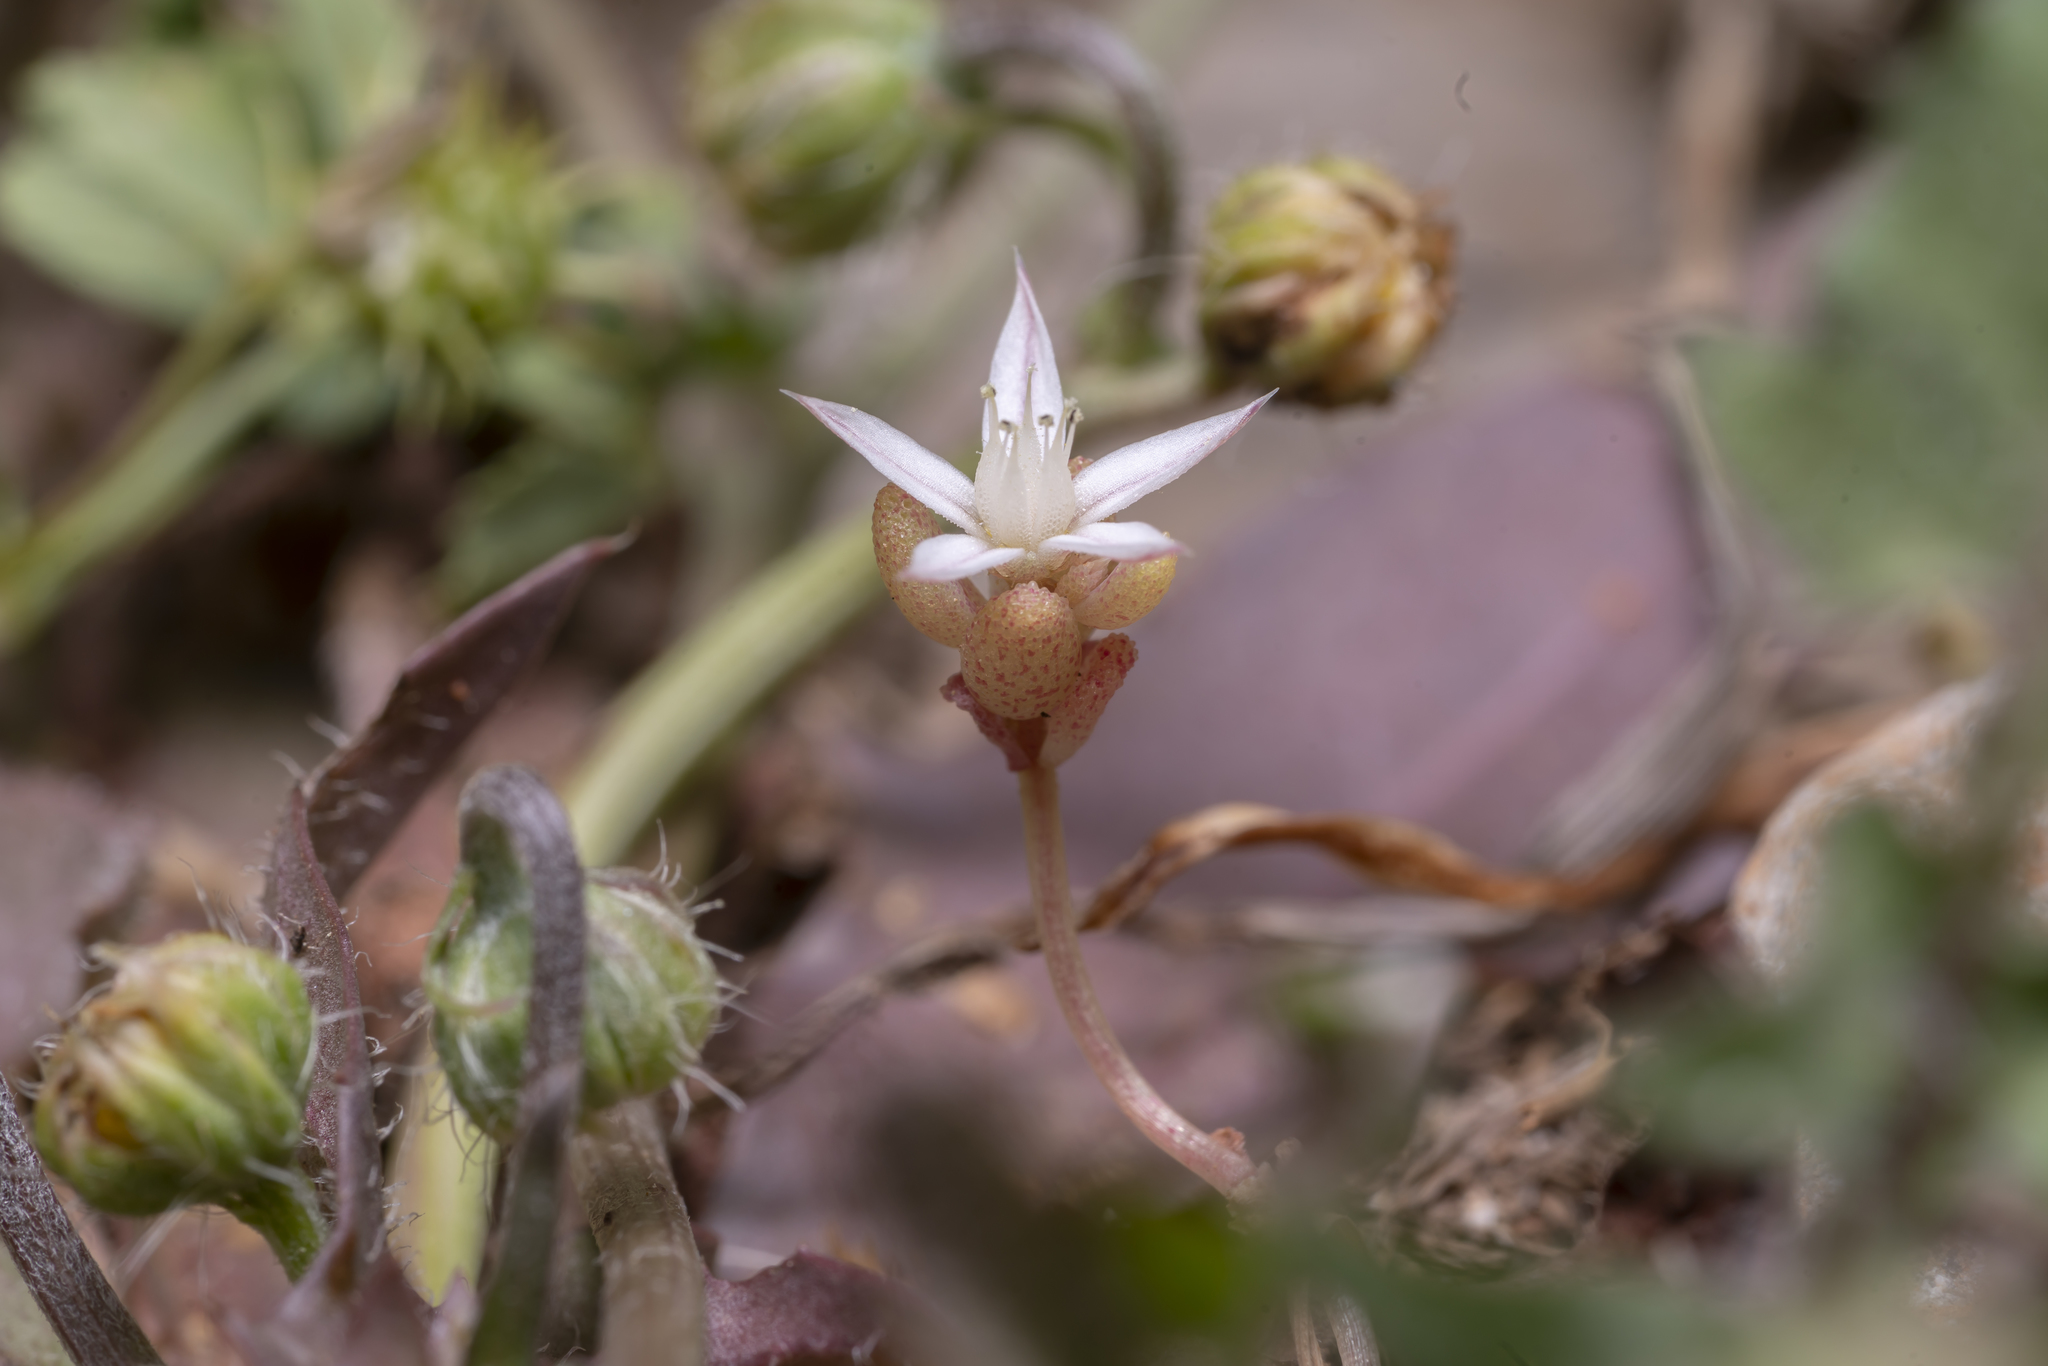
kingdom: Plantae
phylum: Tracheophyta
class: Magnoliopsida
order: Saxifragales
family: Crassulaceae
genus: Sedum
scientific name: Sedum rubens
